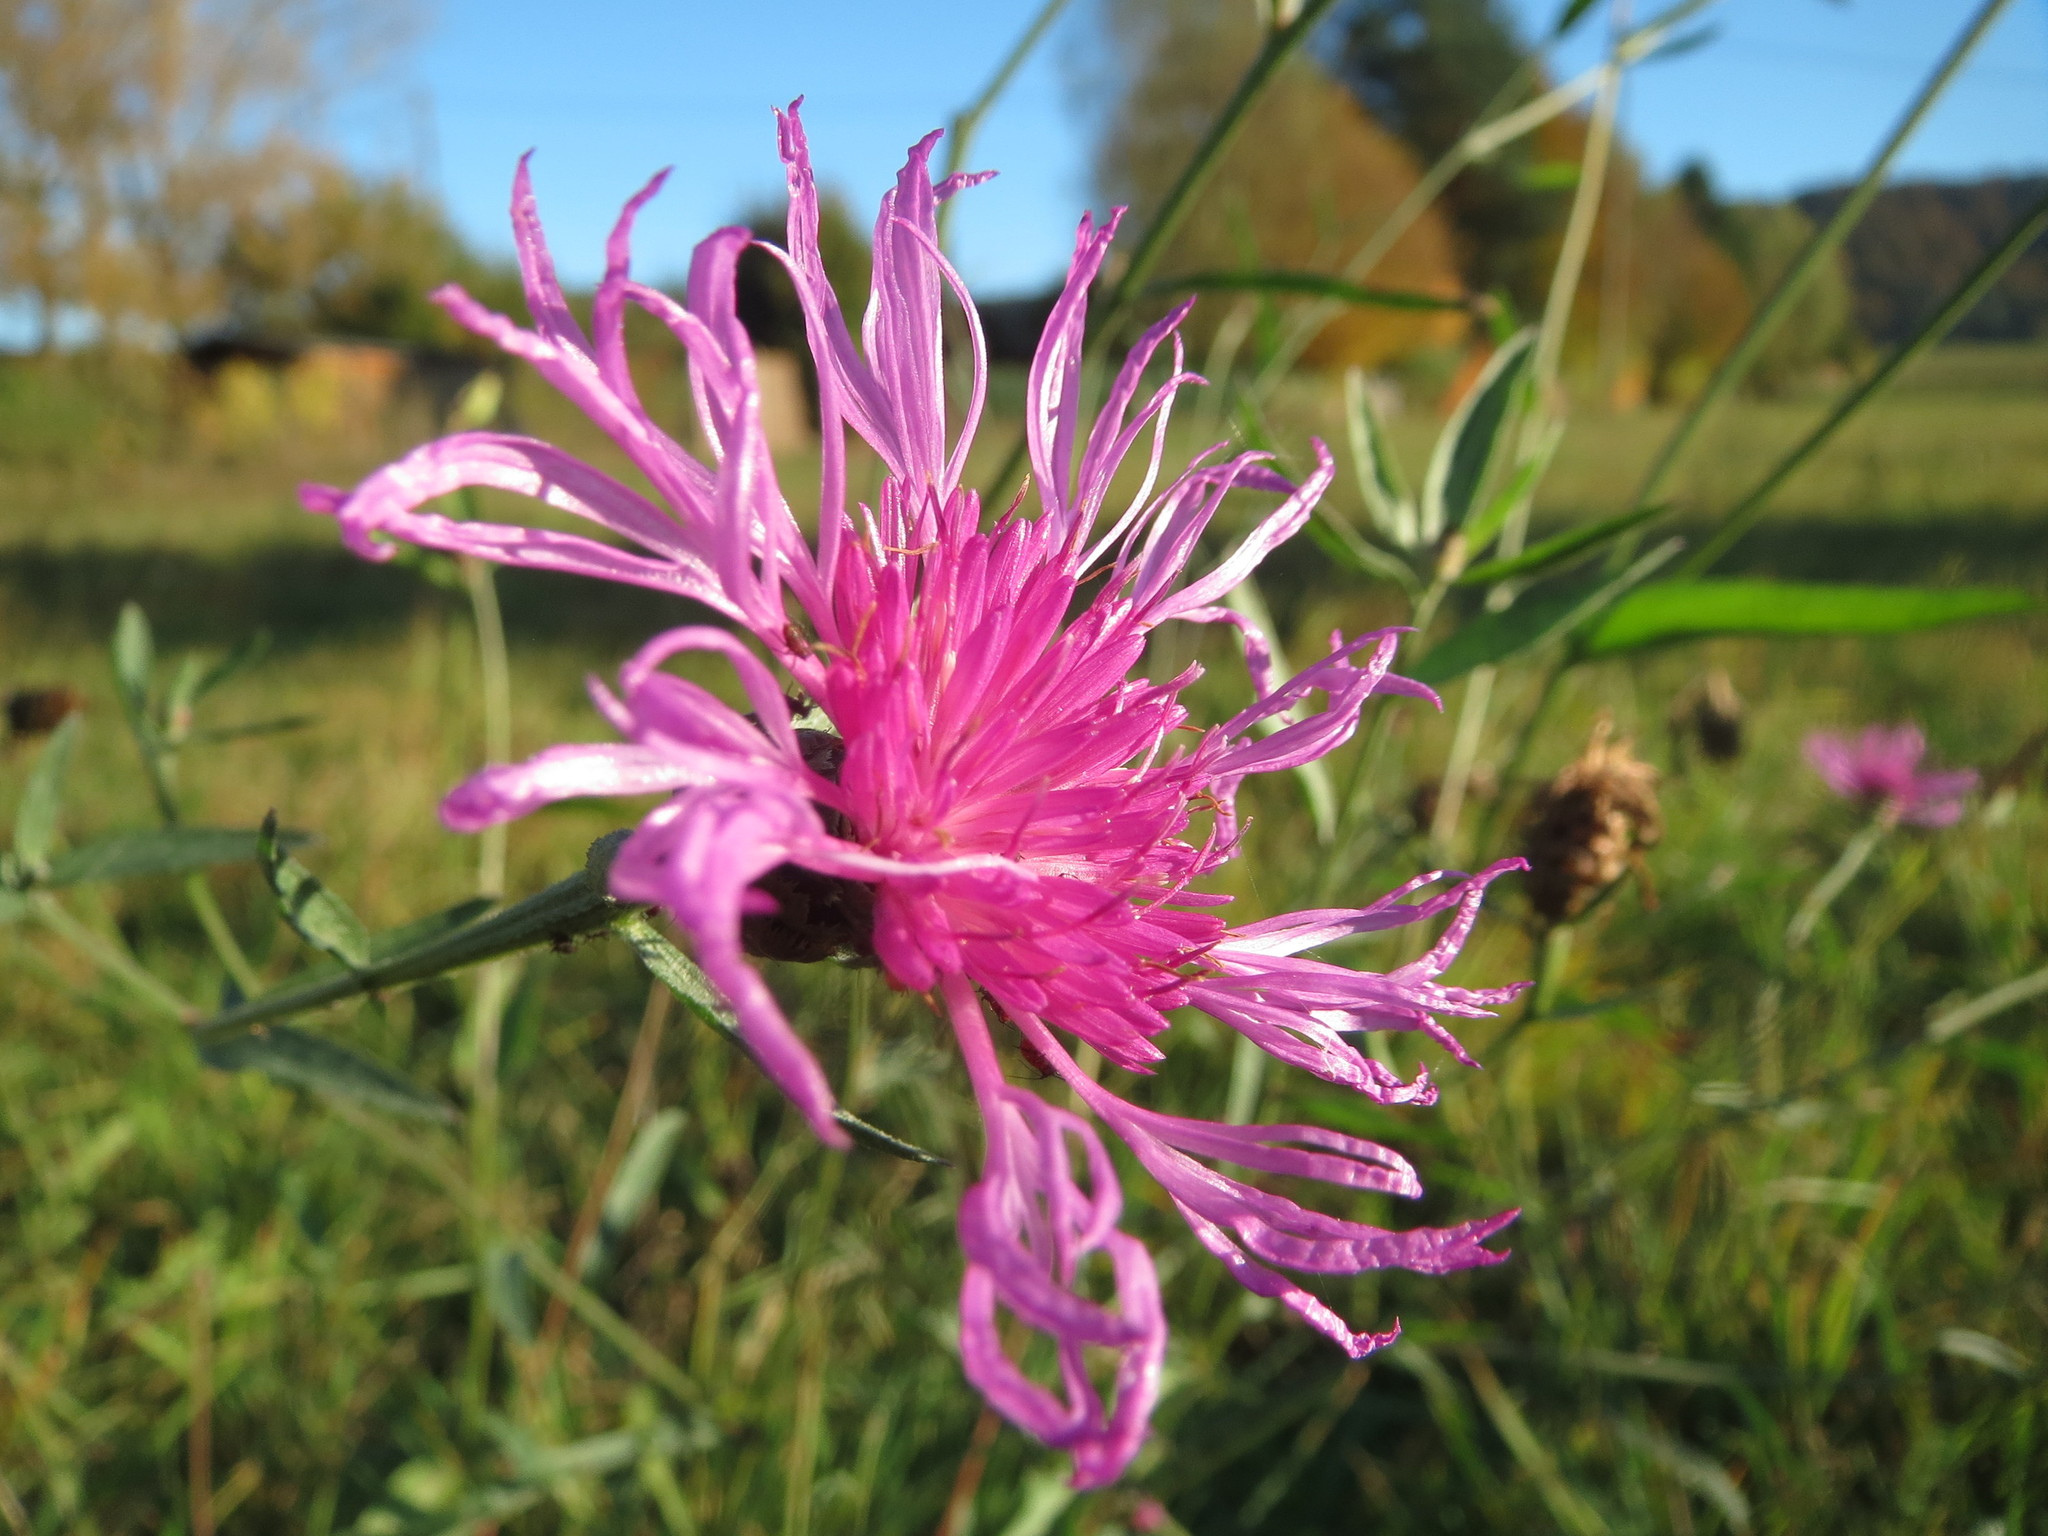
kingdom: Plantae
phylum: Tracheophyta
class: Magnoliopsida
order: Asterales
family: Asteraceae
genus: Centaurea
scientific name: Centaurea jacea
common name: Brown knapweed
